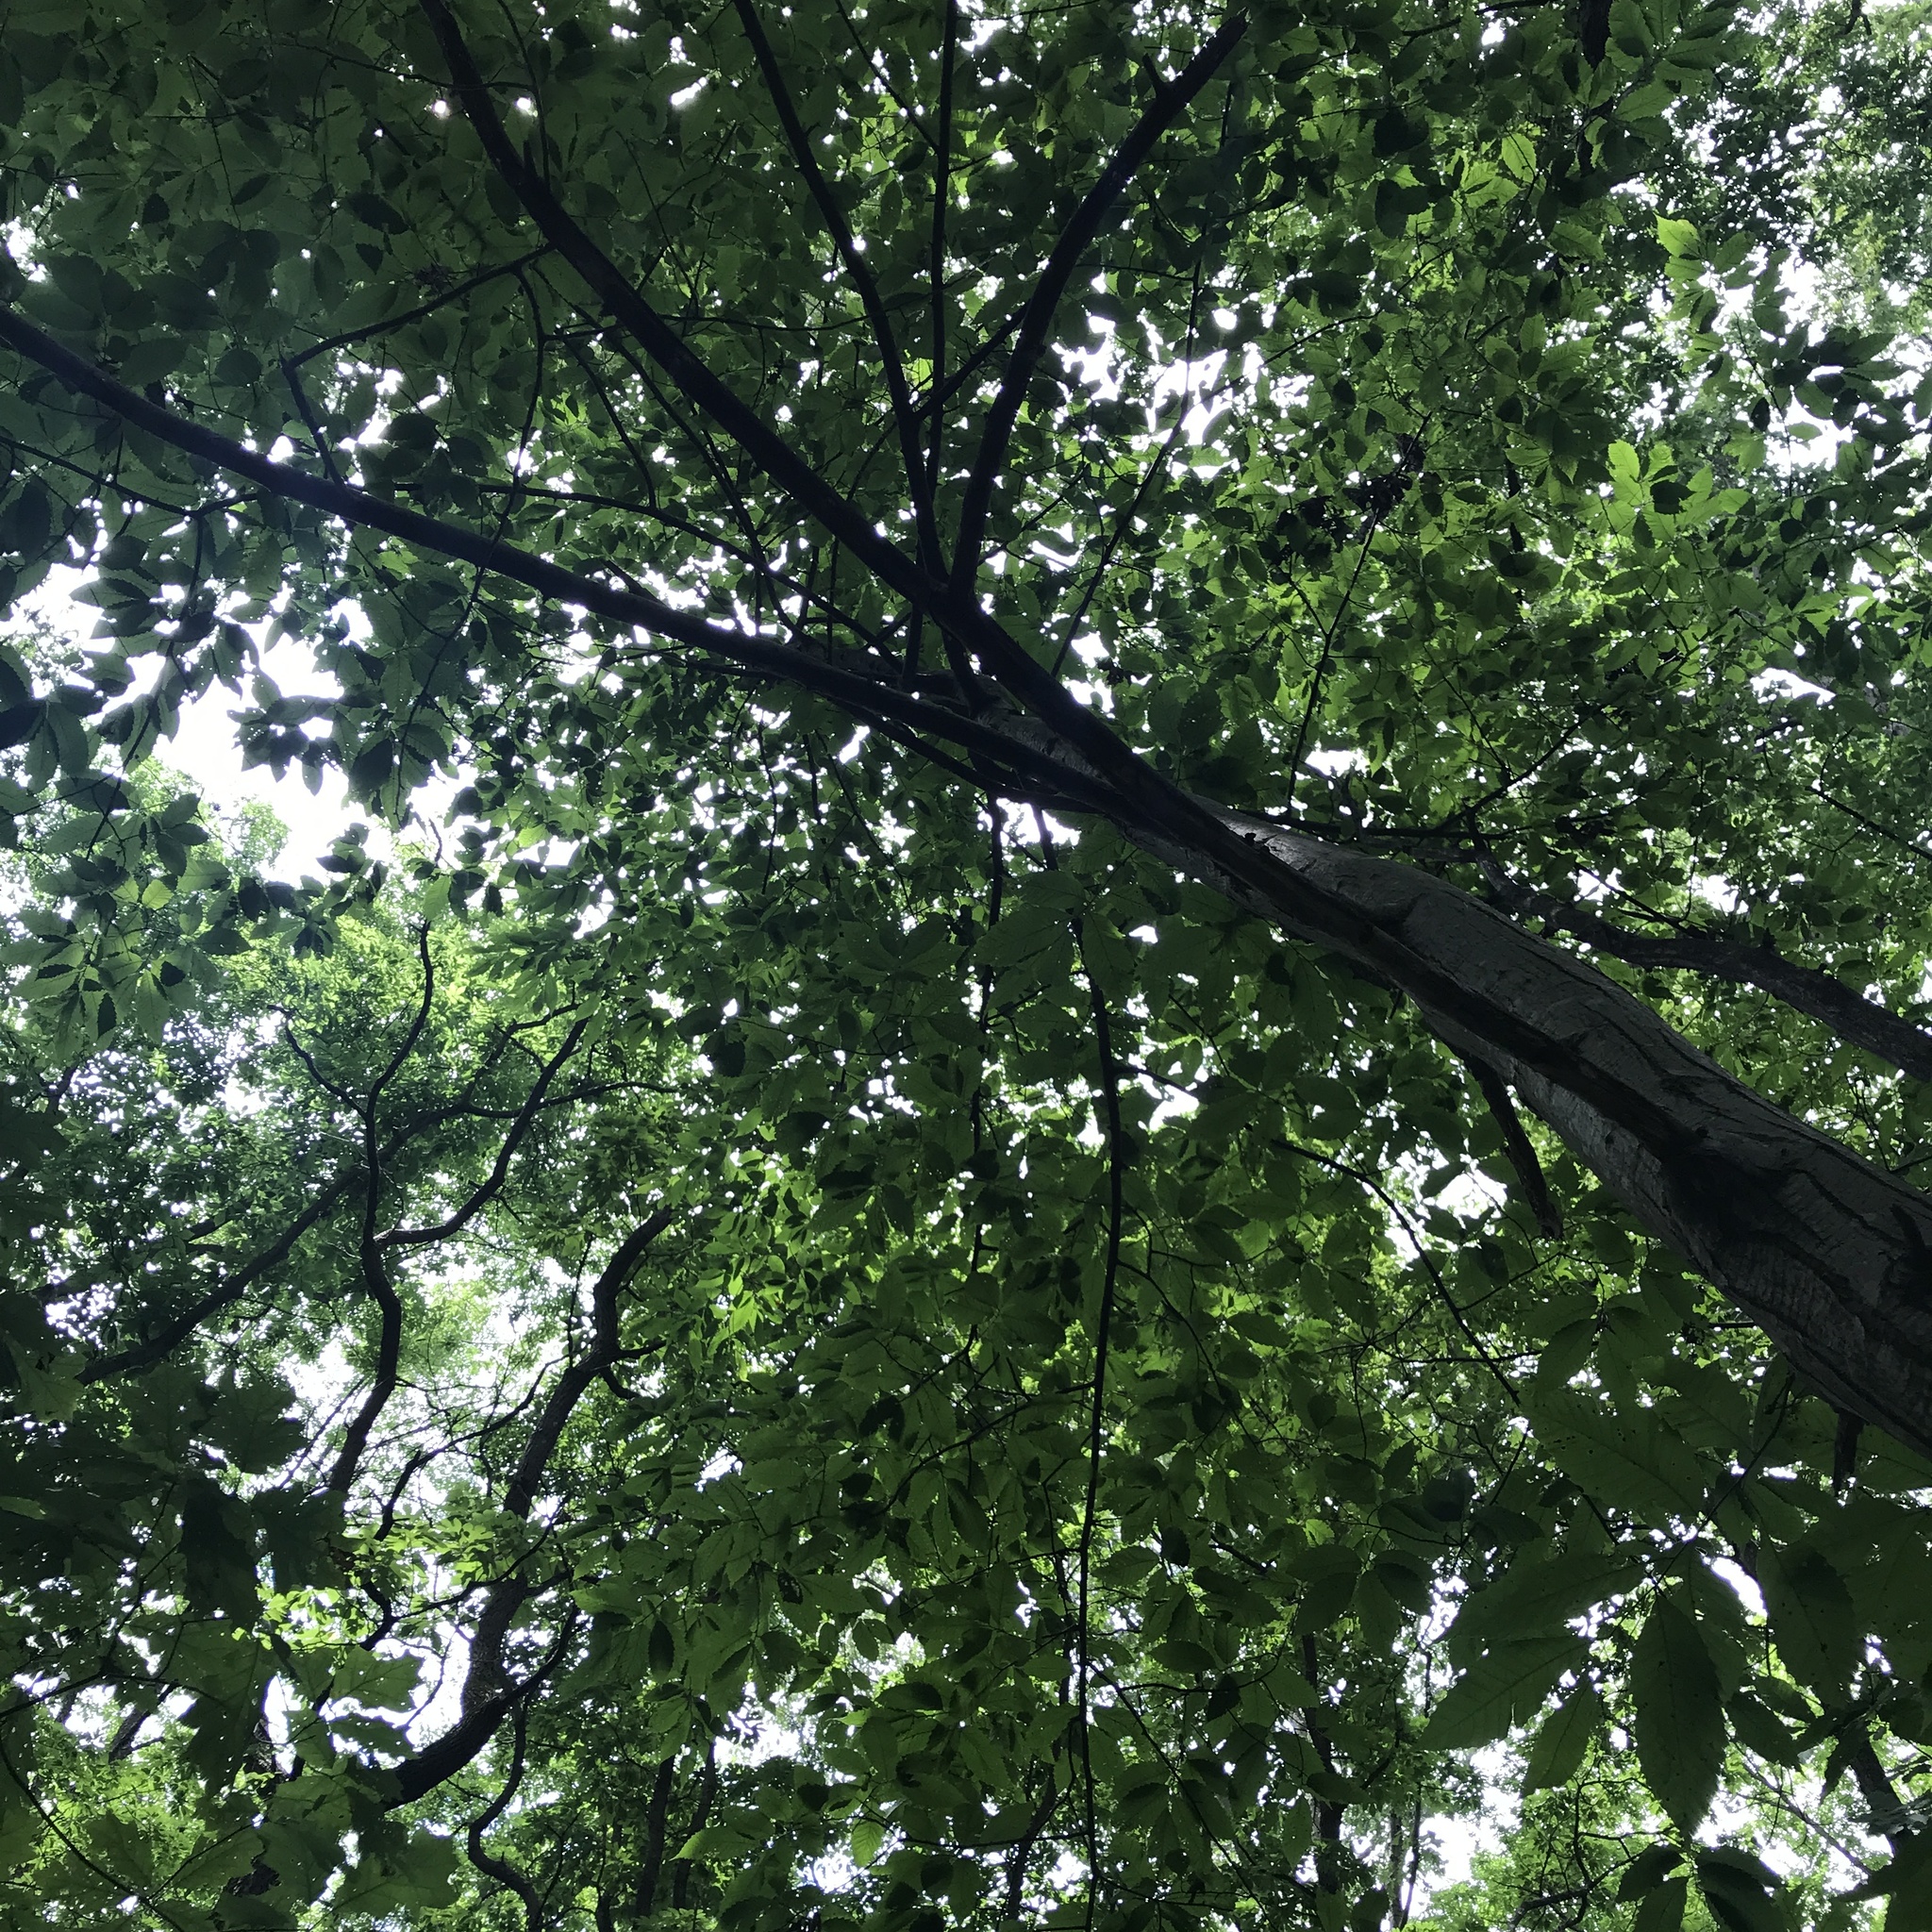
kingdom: Plantae
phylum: Tracheophyta
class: Magnoliopsida
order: Fagales
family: Fagaceae
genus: Castanea
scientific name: Castanea dentata
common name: American chestnut
